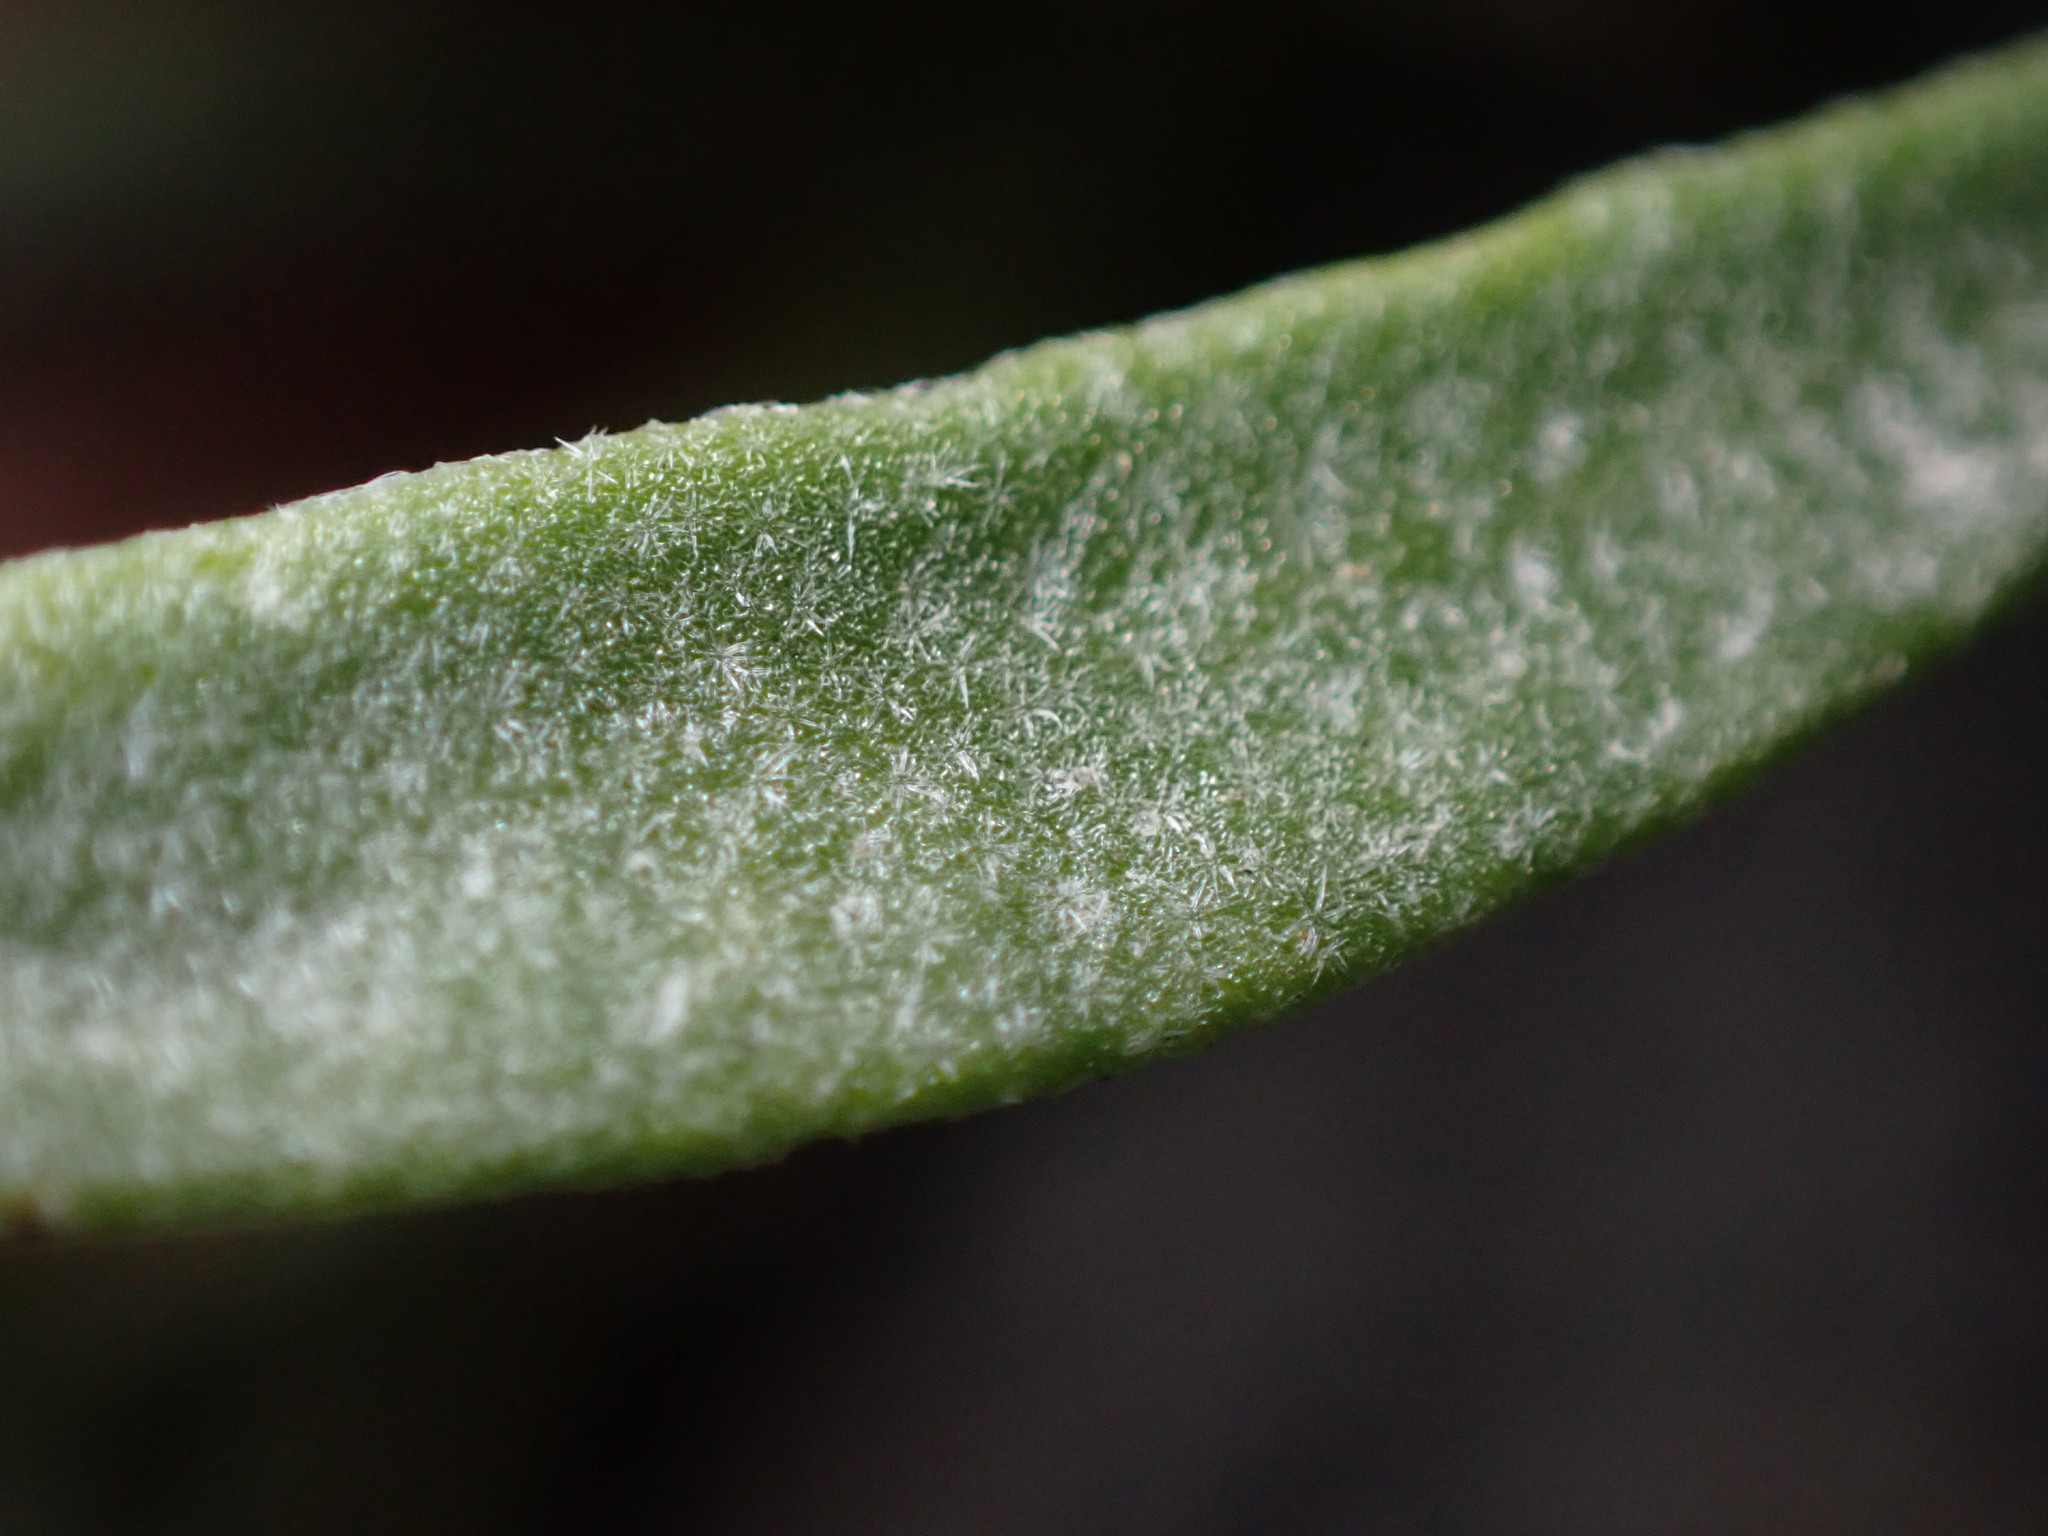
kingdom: Plantae
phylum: Tracheophyta
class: Magnoliopsida
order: Brassicales
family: Brassicaceae
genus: Physaria
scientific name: Physaria floribunda
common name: Point-tip twinpod
